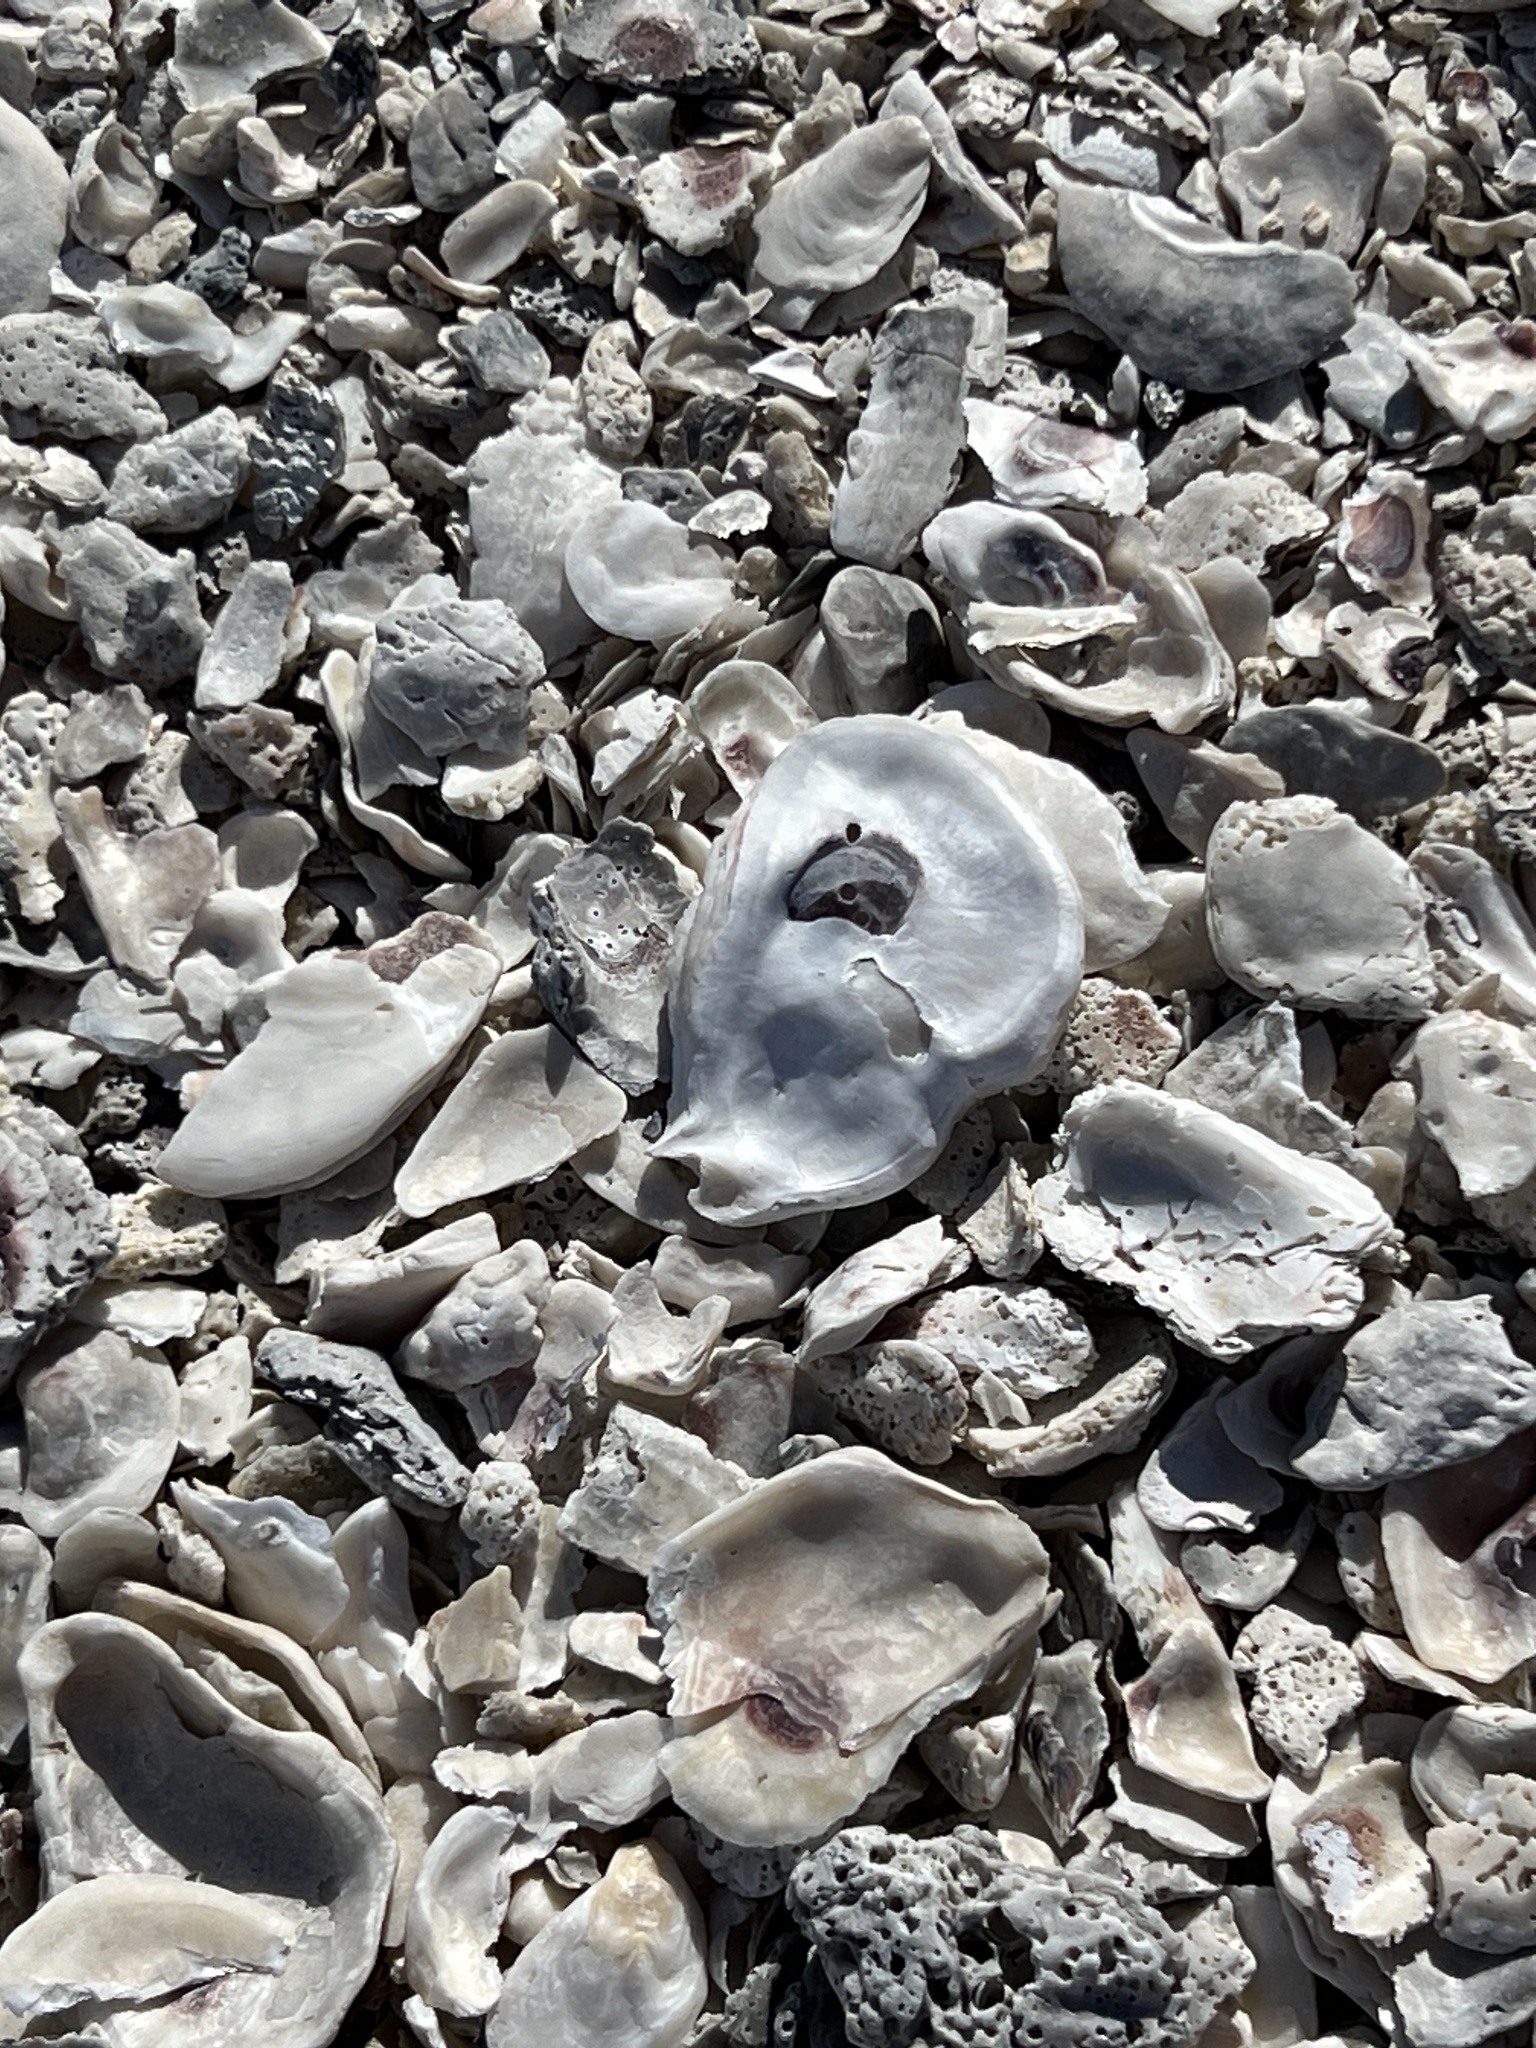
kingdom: Animalia
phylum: Mollusca
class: Bivalvia
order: Ostreida
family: Ostreidae
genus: Crassostrea
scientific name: Crassostrea virginica
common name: American oyster
